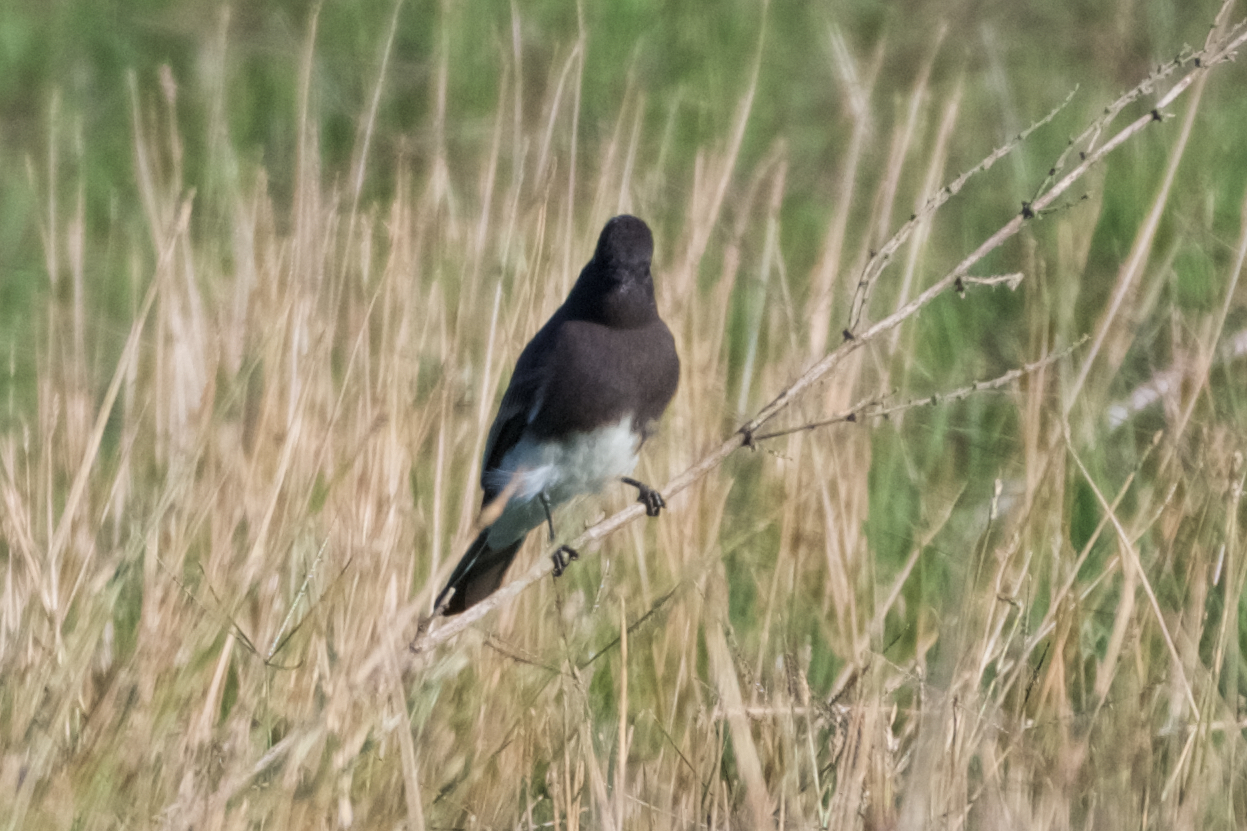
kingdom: Animalia
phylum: Chordata
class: Aves
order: Passeriformes
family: Tyrannidae
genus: Sayornis
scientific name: Sayornis nigricans
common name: Black phoebe
